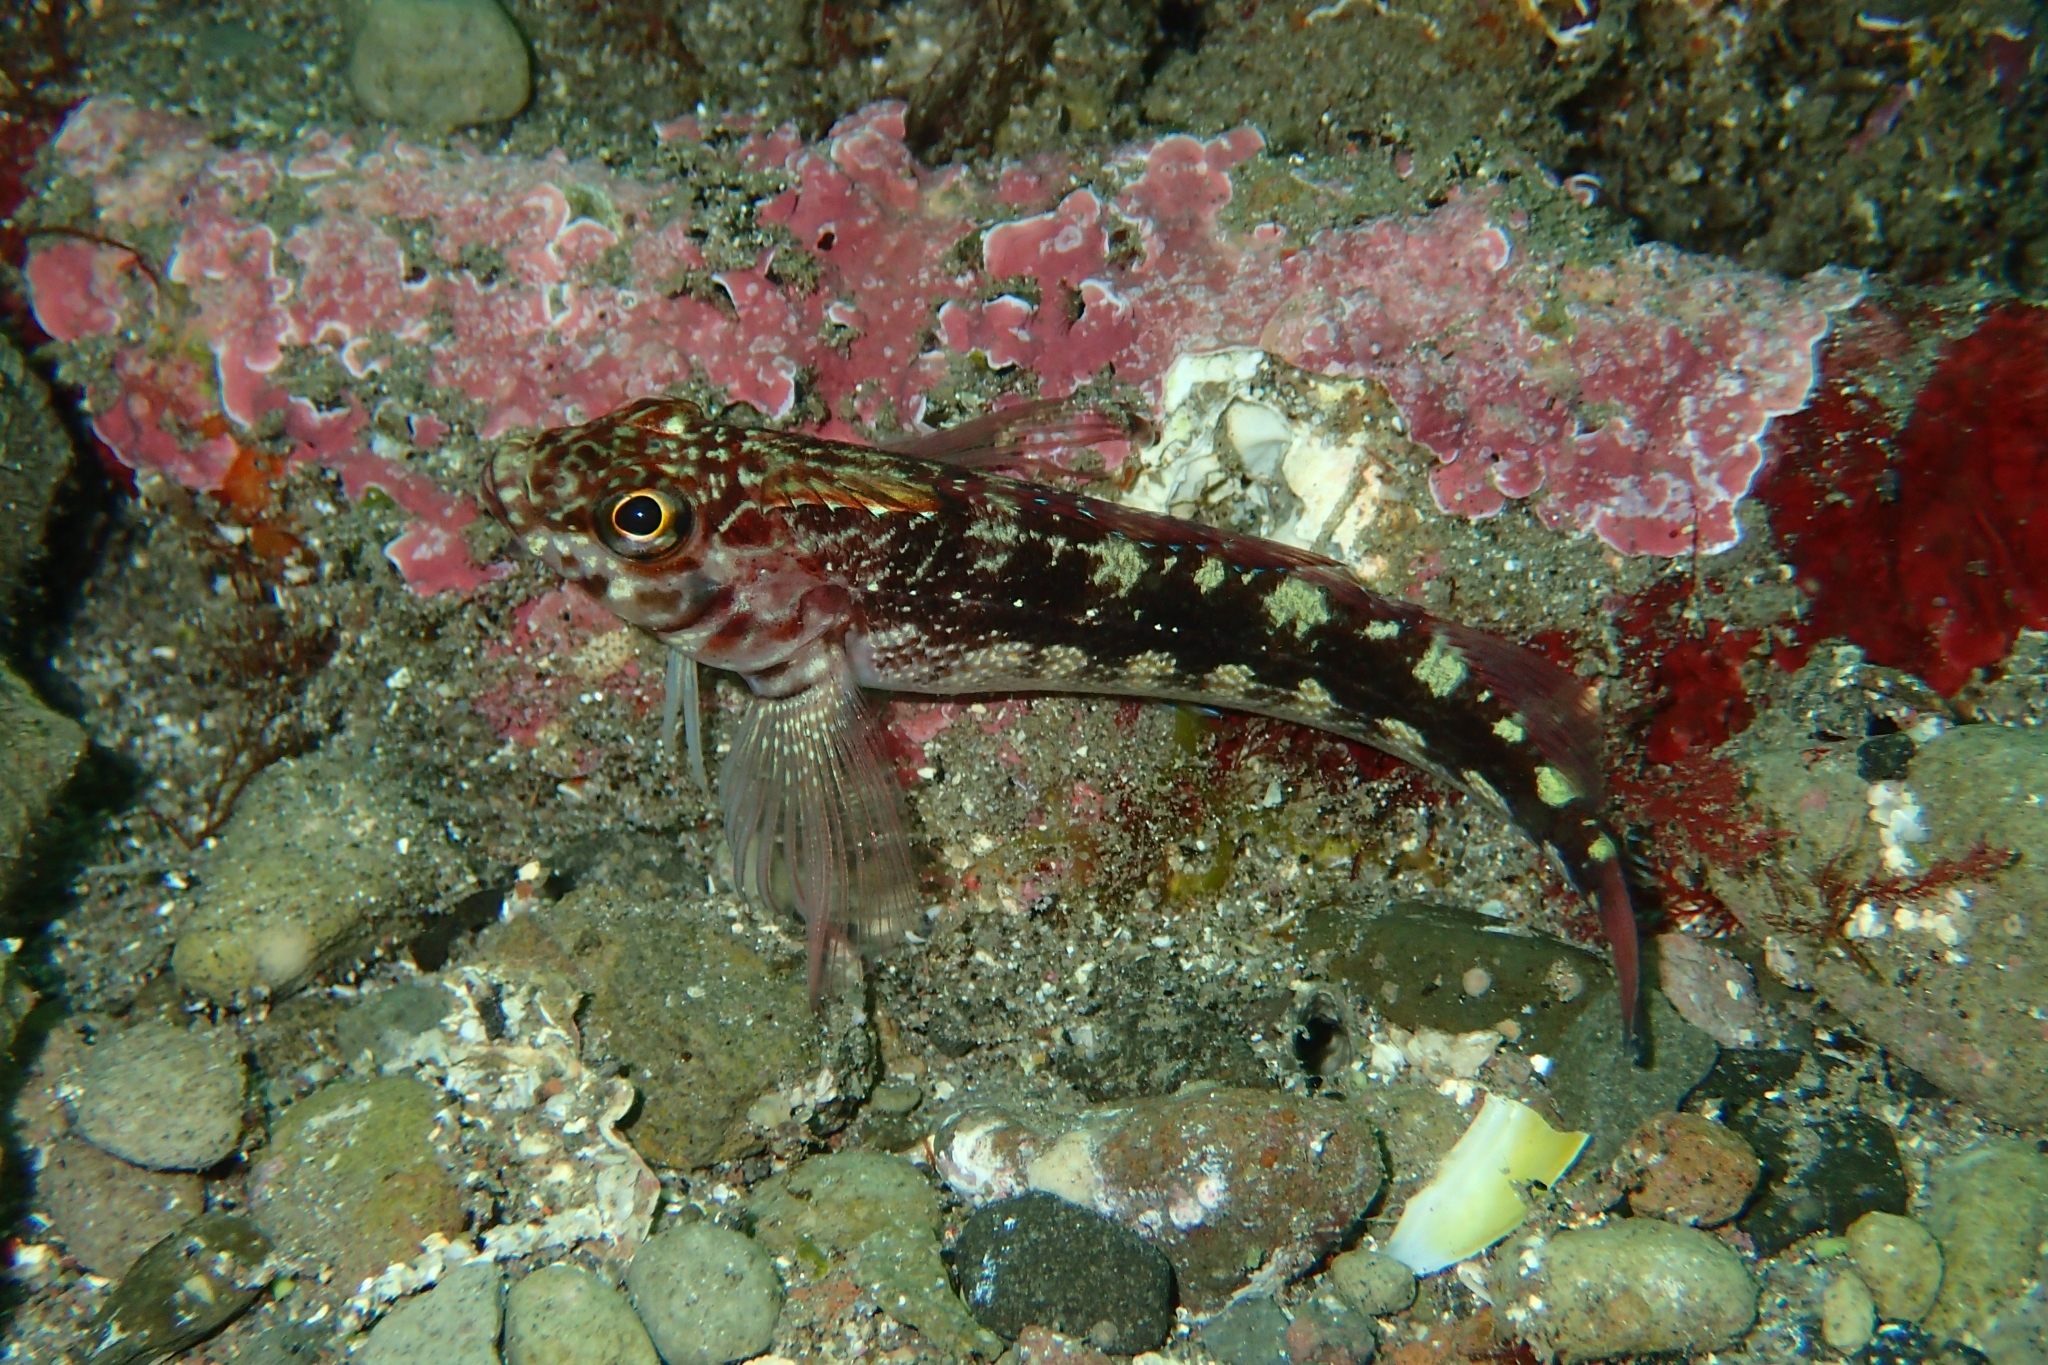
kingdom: Animalia
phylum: Chordata
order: Perciformes
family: Tripterygiidae
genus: Forsterygion
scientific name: Forsterygion varium
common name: Variable triplefin
